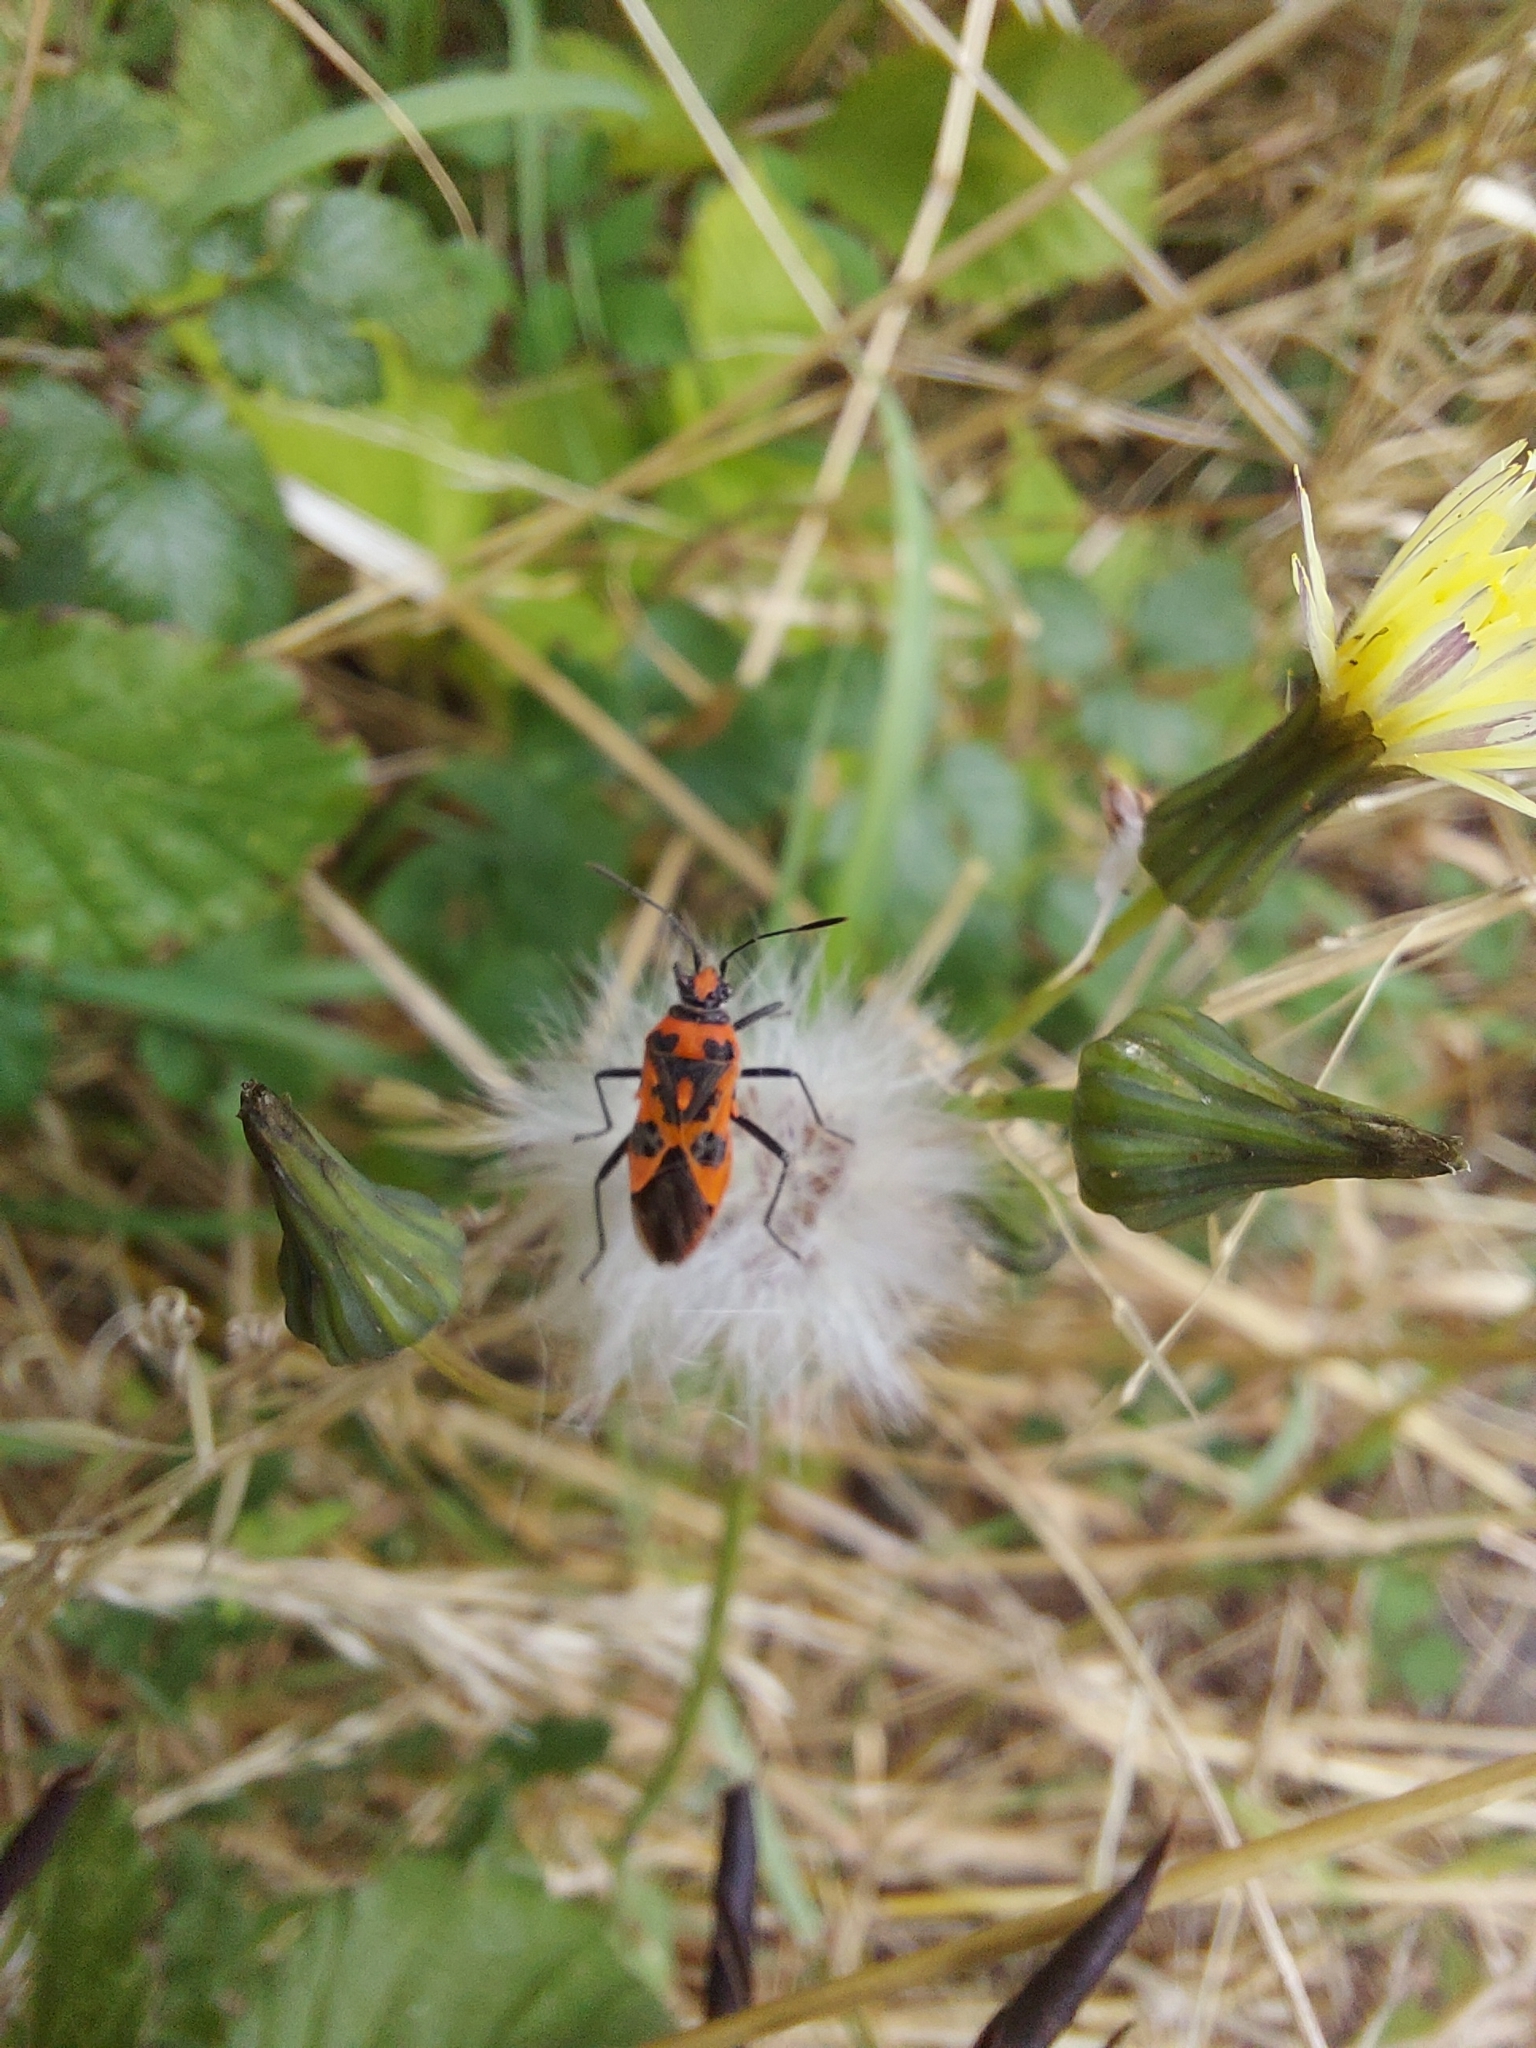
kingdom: Animalia
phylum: Arthropoda
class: Insecta
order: Hemiptera
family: Rhopalidae
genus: Corizus
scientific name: Corizus hyoscyami
